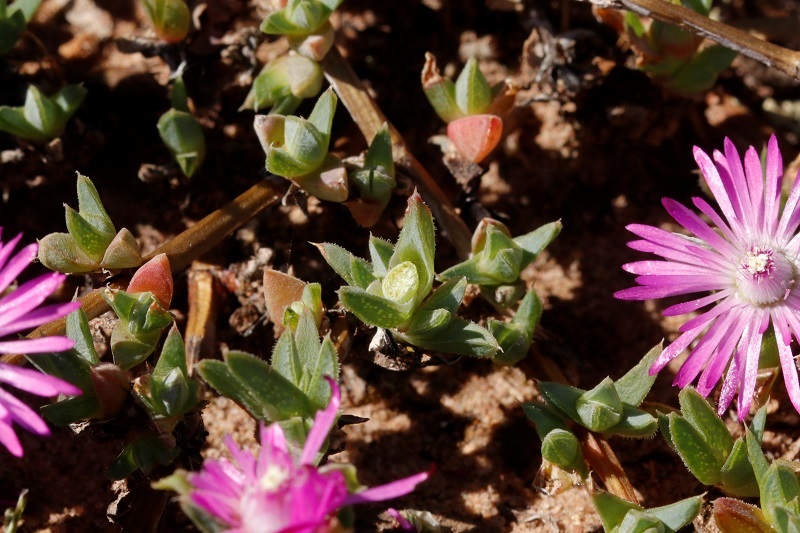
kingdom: Plantae
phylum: Tracheophyta
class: Magnoliopsida
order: Caryophyllales
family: Aizoaceae
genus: Antimima
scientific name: Antimima aristulata
